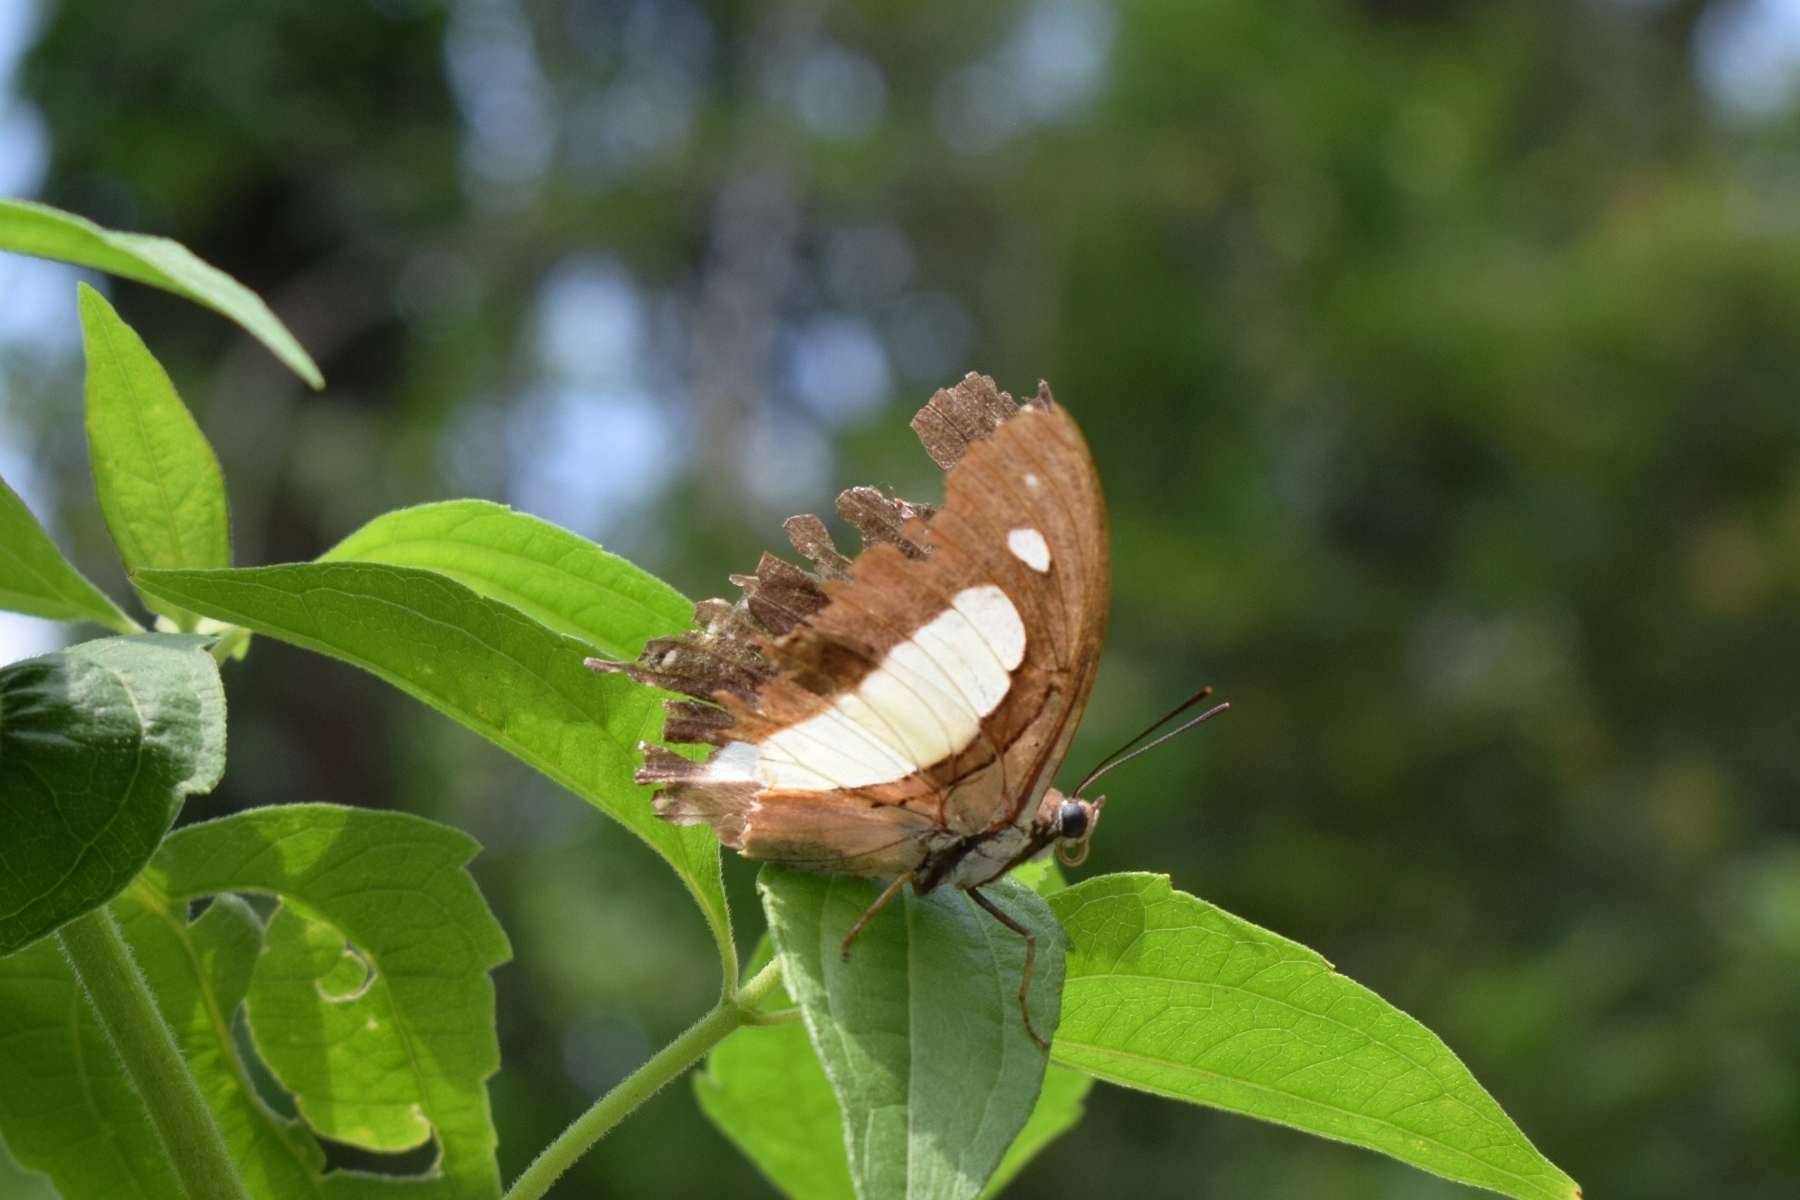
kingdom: Animalia
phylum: Arthropoda
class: Insecta
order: Lepidoptera
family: Nymphalidae
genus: Polyura
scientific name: Polyura athamas
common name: Common nawab
